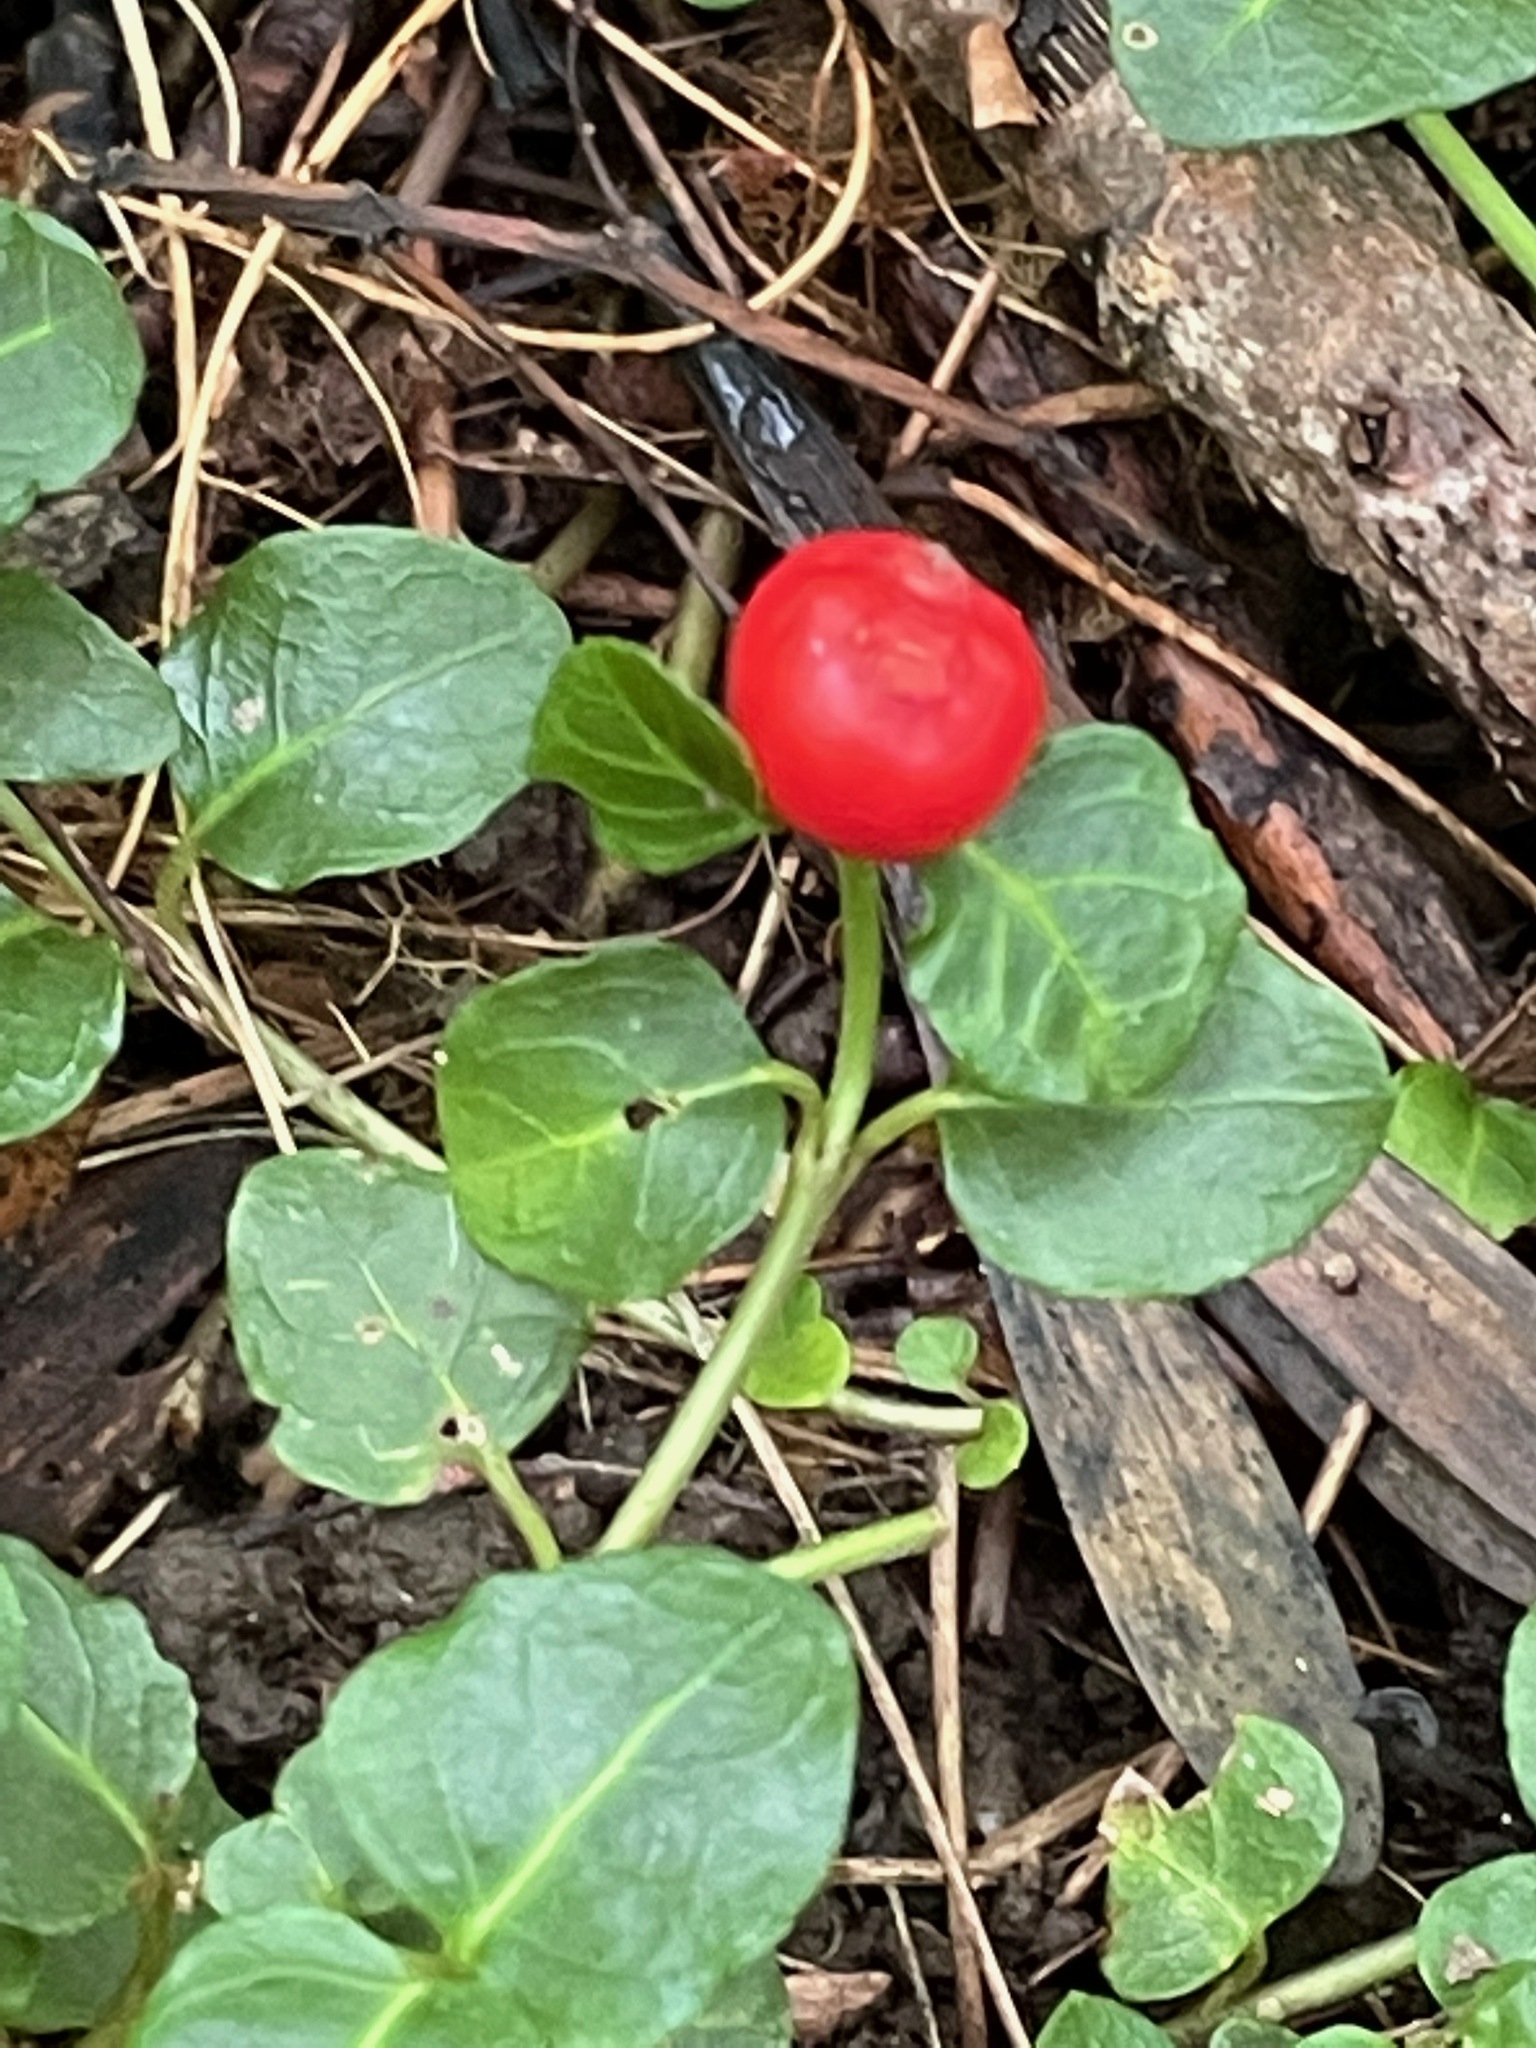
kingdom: Plantae
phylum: Tracheophyta
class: Magnoliopsida
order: Gentianales
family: Rubiaceae
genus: Mitchella
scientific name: Mitchella repens
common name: Partridge-berry
